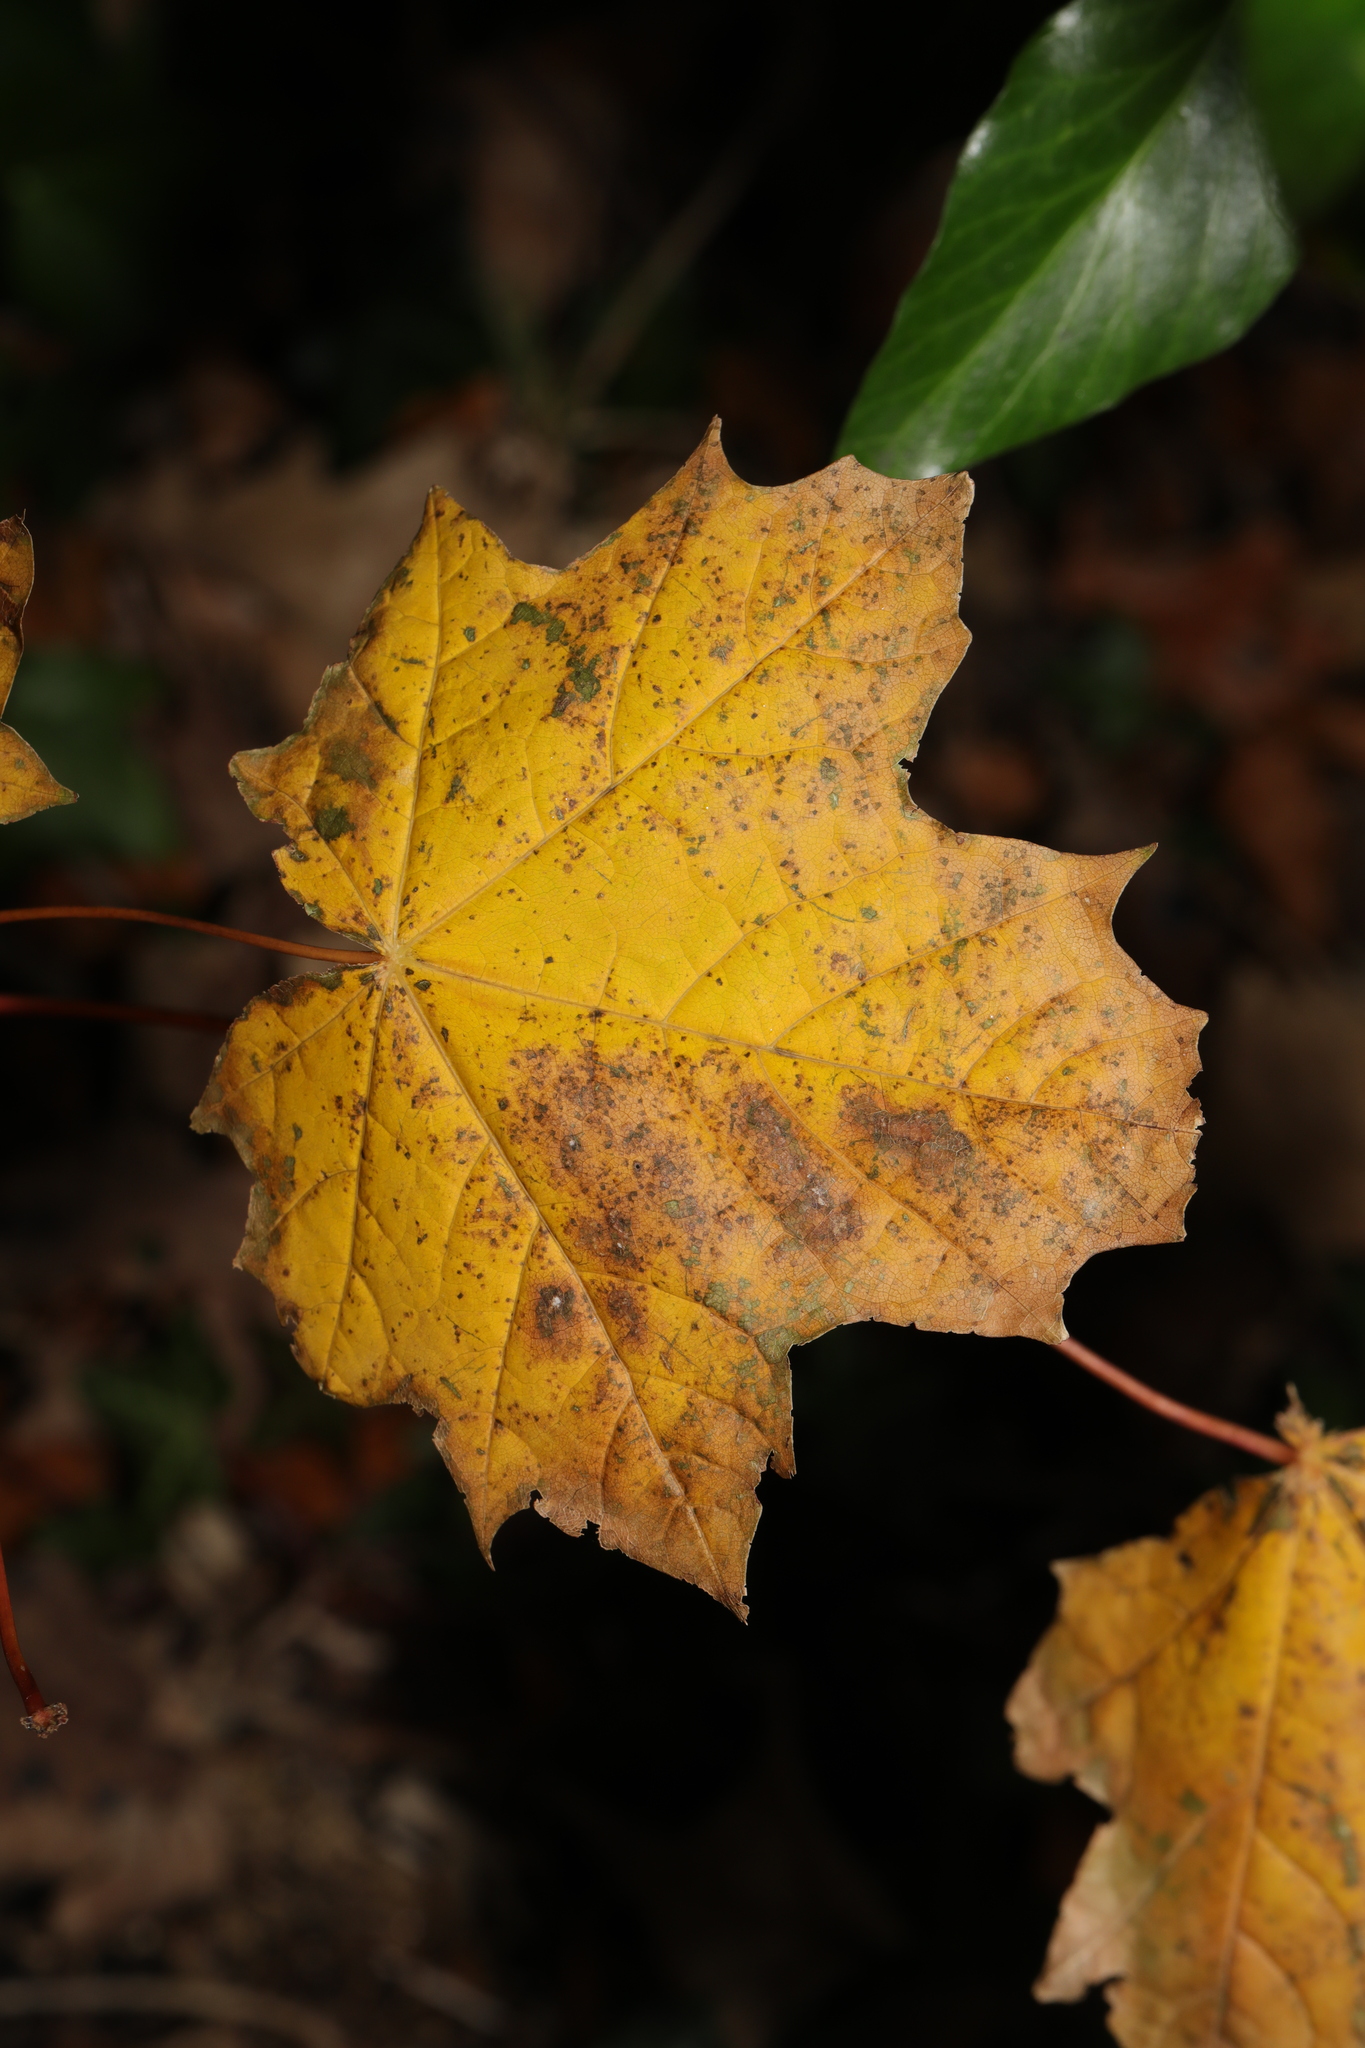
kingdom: Plantae
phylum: Tracheophyta
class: Magnoliopsida
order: Sapindales
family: Sapindaceae
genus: Acer
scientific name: Acer platanoides
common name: Norway maple
